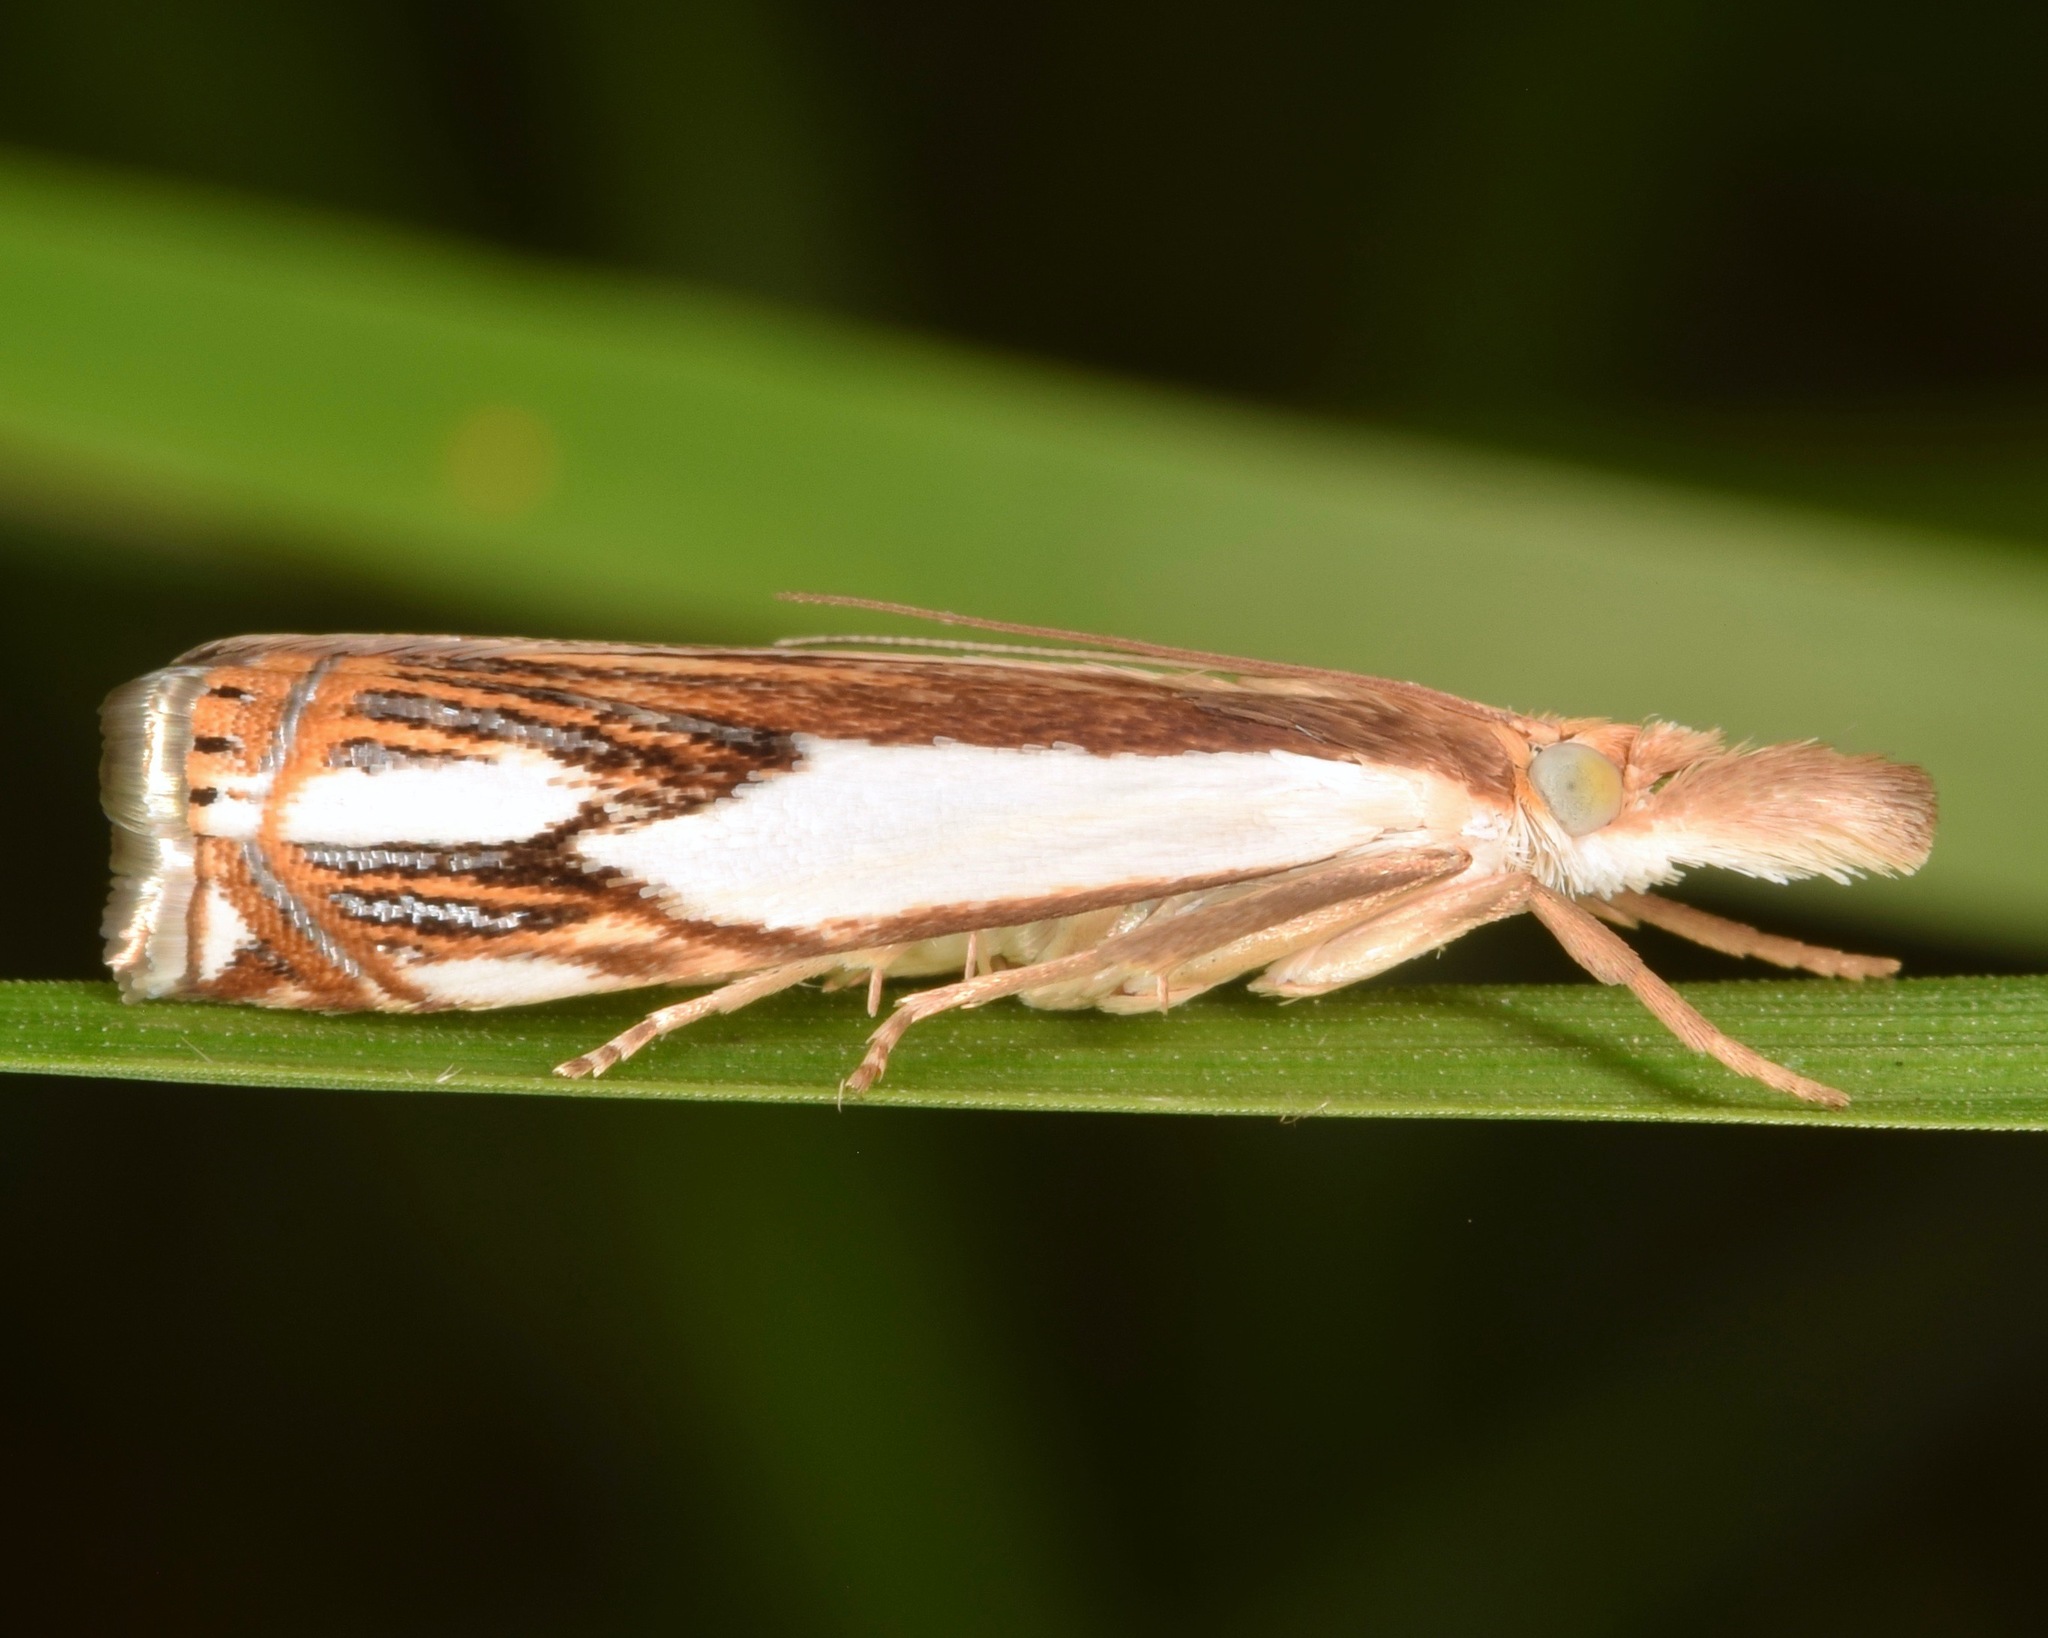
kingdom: Animalia
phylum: Arthropoda
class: Insecta
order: Lepidoptera
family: Crambidae
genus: Crambus
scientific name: Crambus agitatellus
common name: Double-banded grass-veneer
